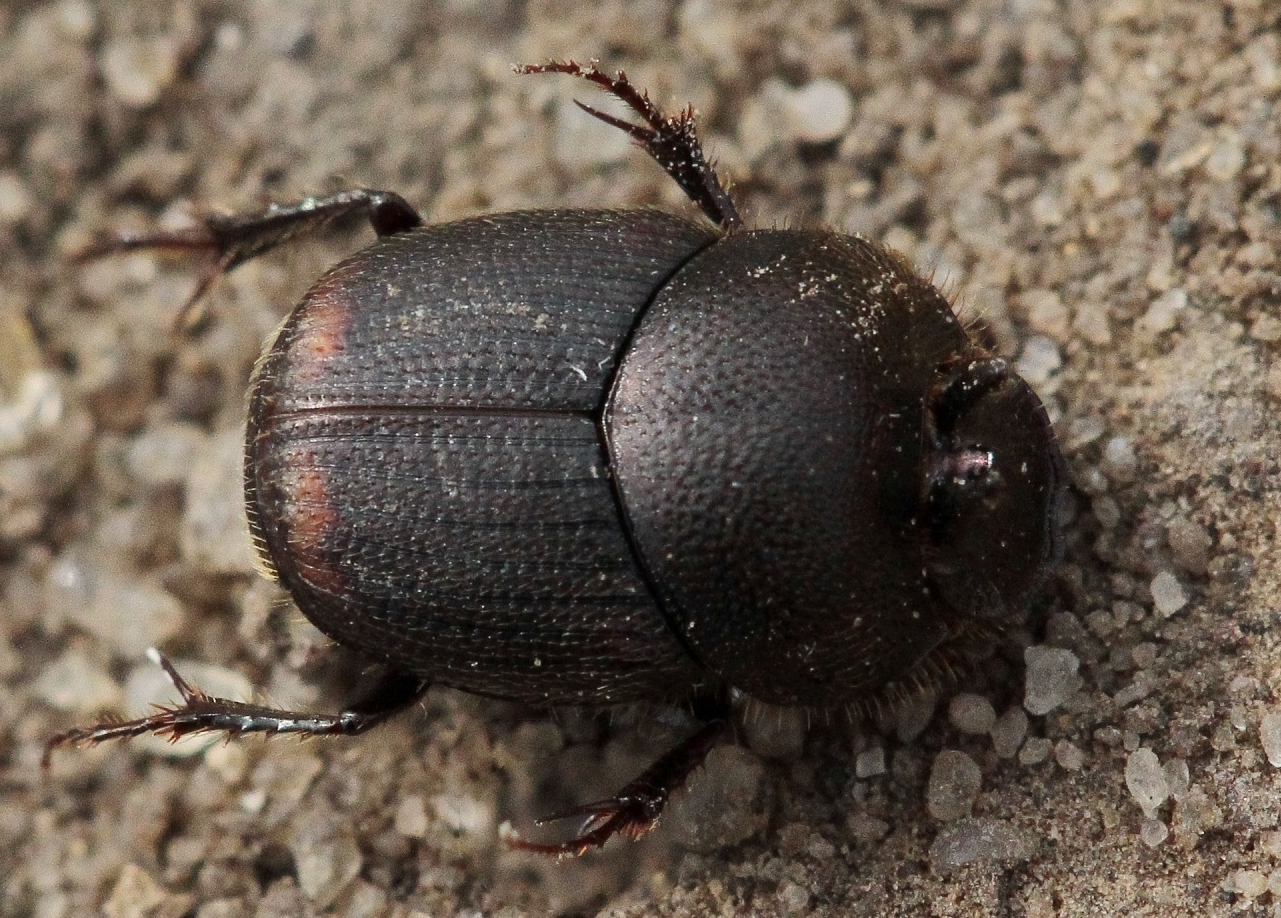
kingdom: Animalia
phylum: Arthropoda
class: Insecta
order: Coleoptera
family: Scarabaeidae
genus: Onthophagus
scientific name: Onthophagus furcatus
